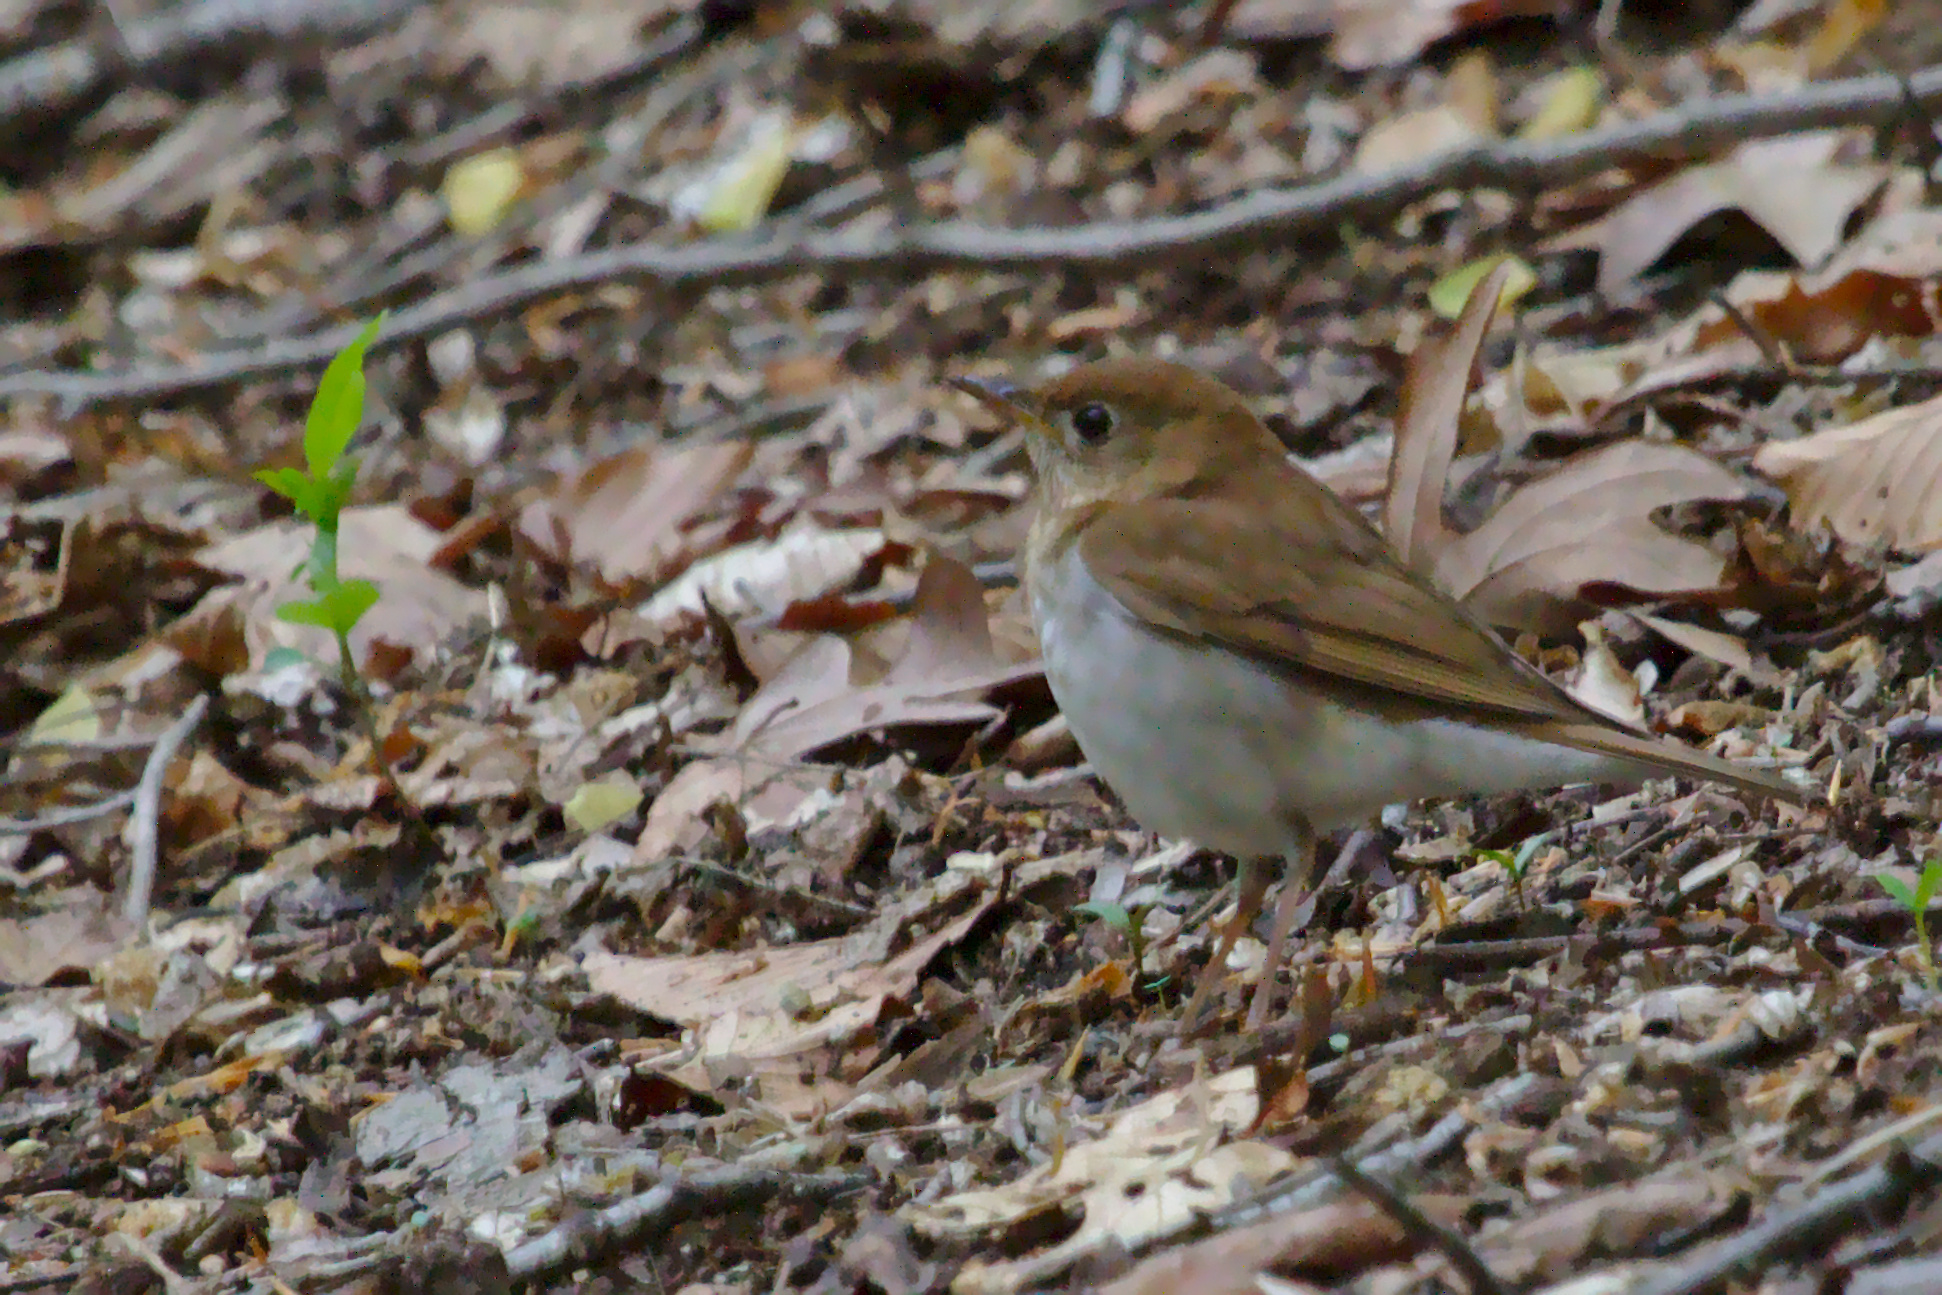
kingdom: Animalia
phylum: Chordata
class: Aves
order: Passeriformes
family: Turdidae
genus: Catharus
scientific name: Catharus fuscescens
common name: Veery
